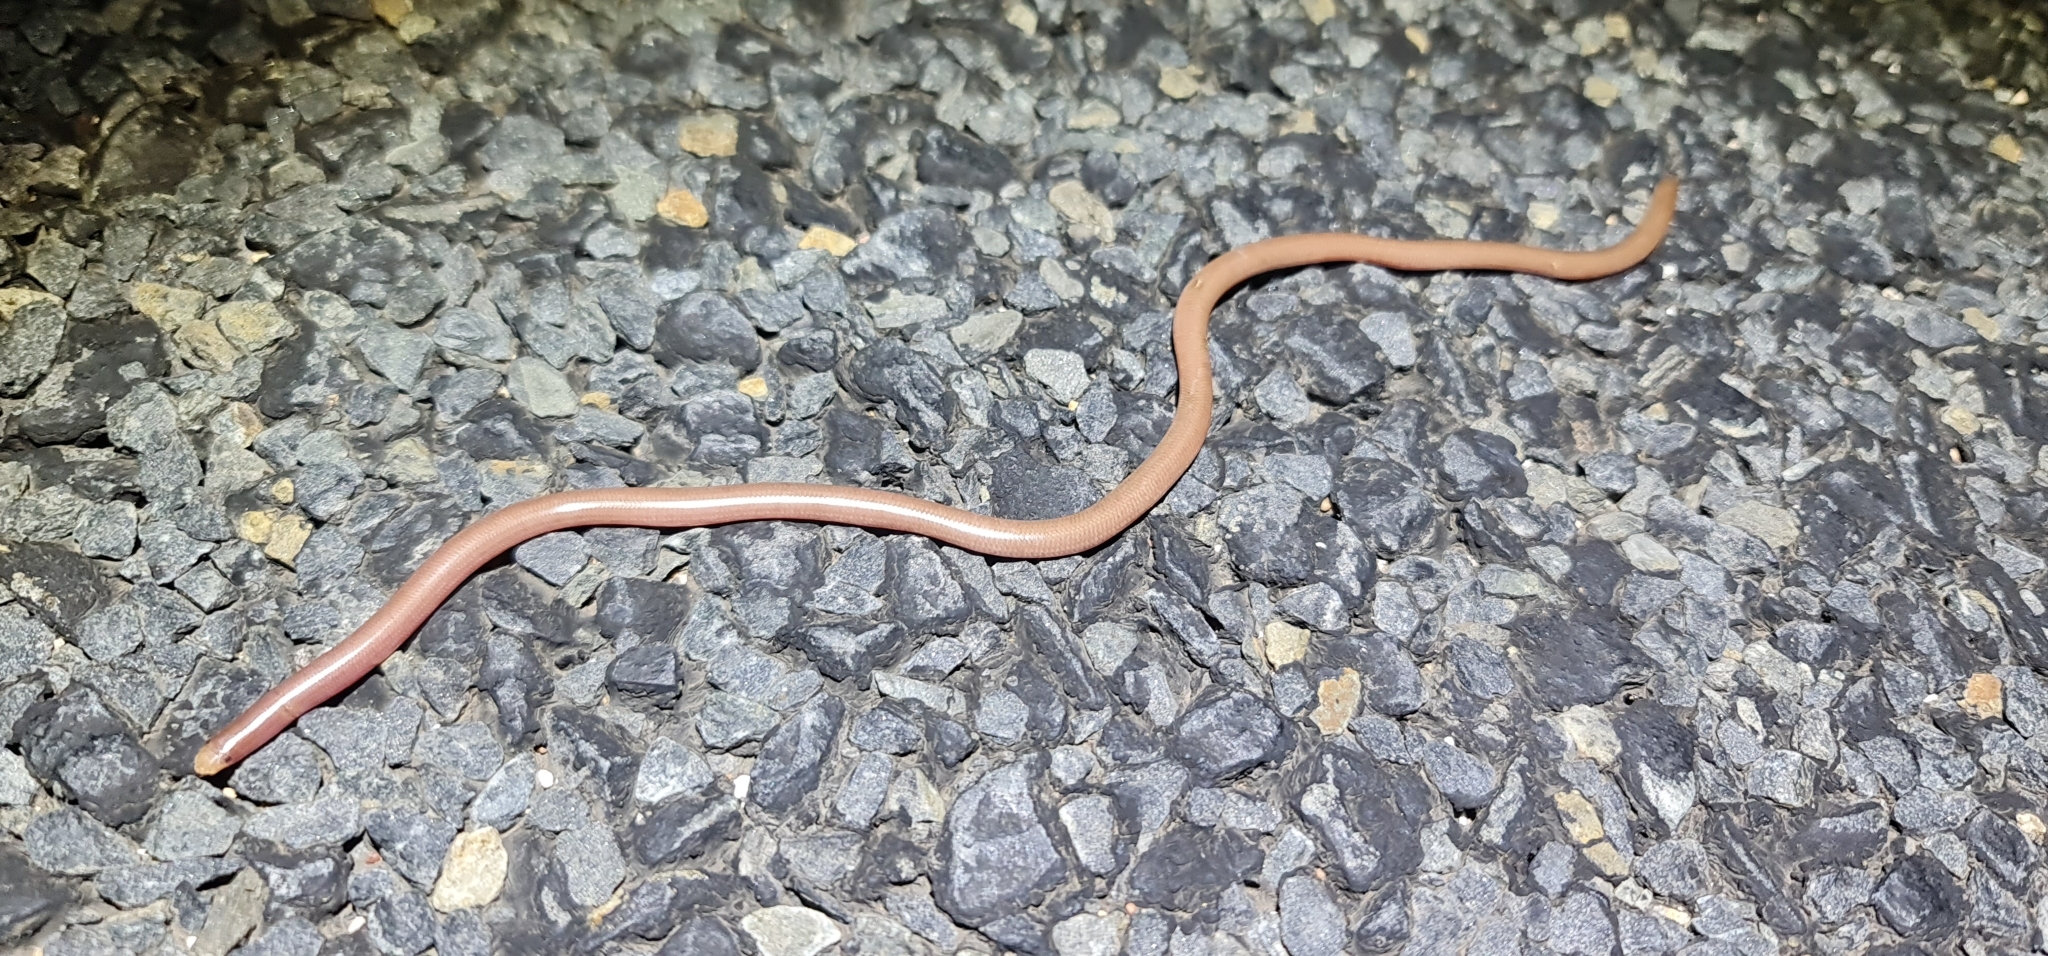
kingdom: Animalia
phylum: Chordata
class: Squamata
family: Typhlopidae
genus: Anilios
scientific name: Anilios bituberculatus
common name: Prong-snouted blind snake
